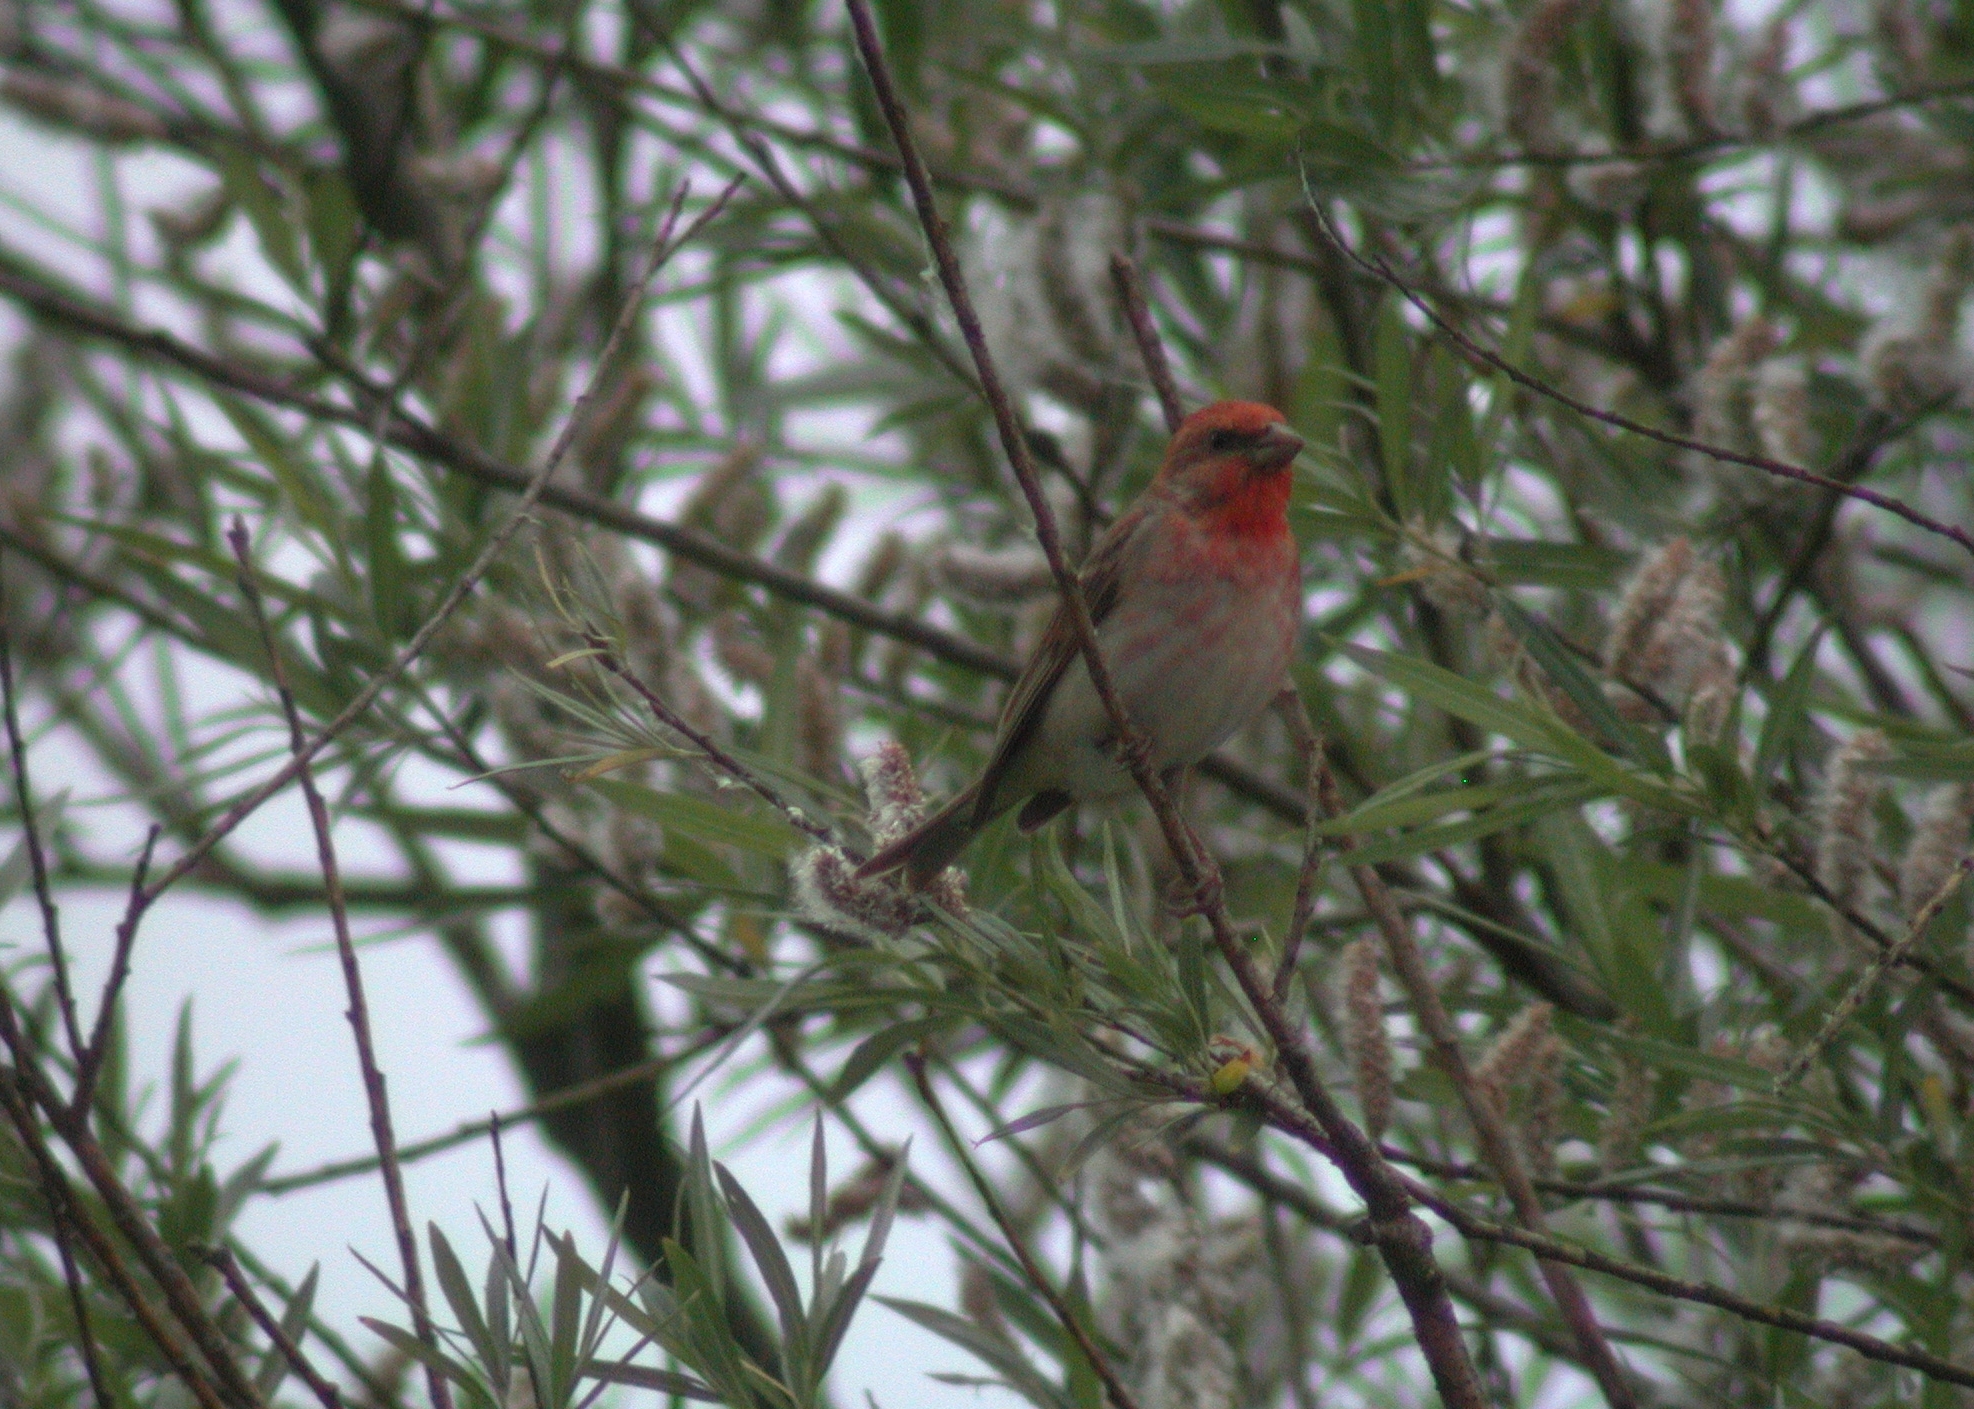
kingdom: Animalia
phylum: Chordata
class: Aves
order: Passeriformes
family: Fringillidae
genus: Carpodacus
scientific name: Carpodacus erythrinus
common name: Common rosefinch
